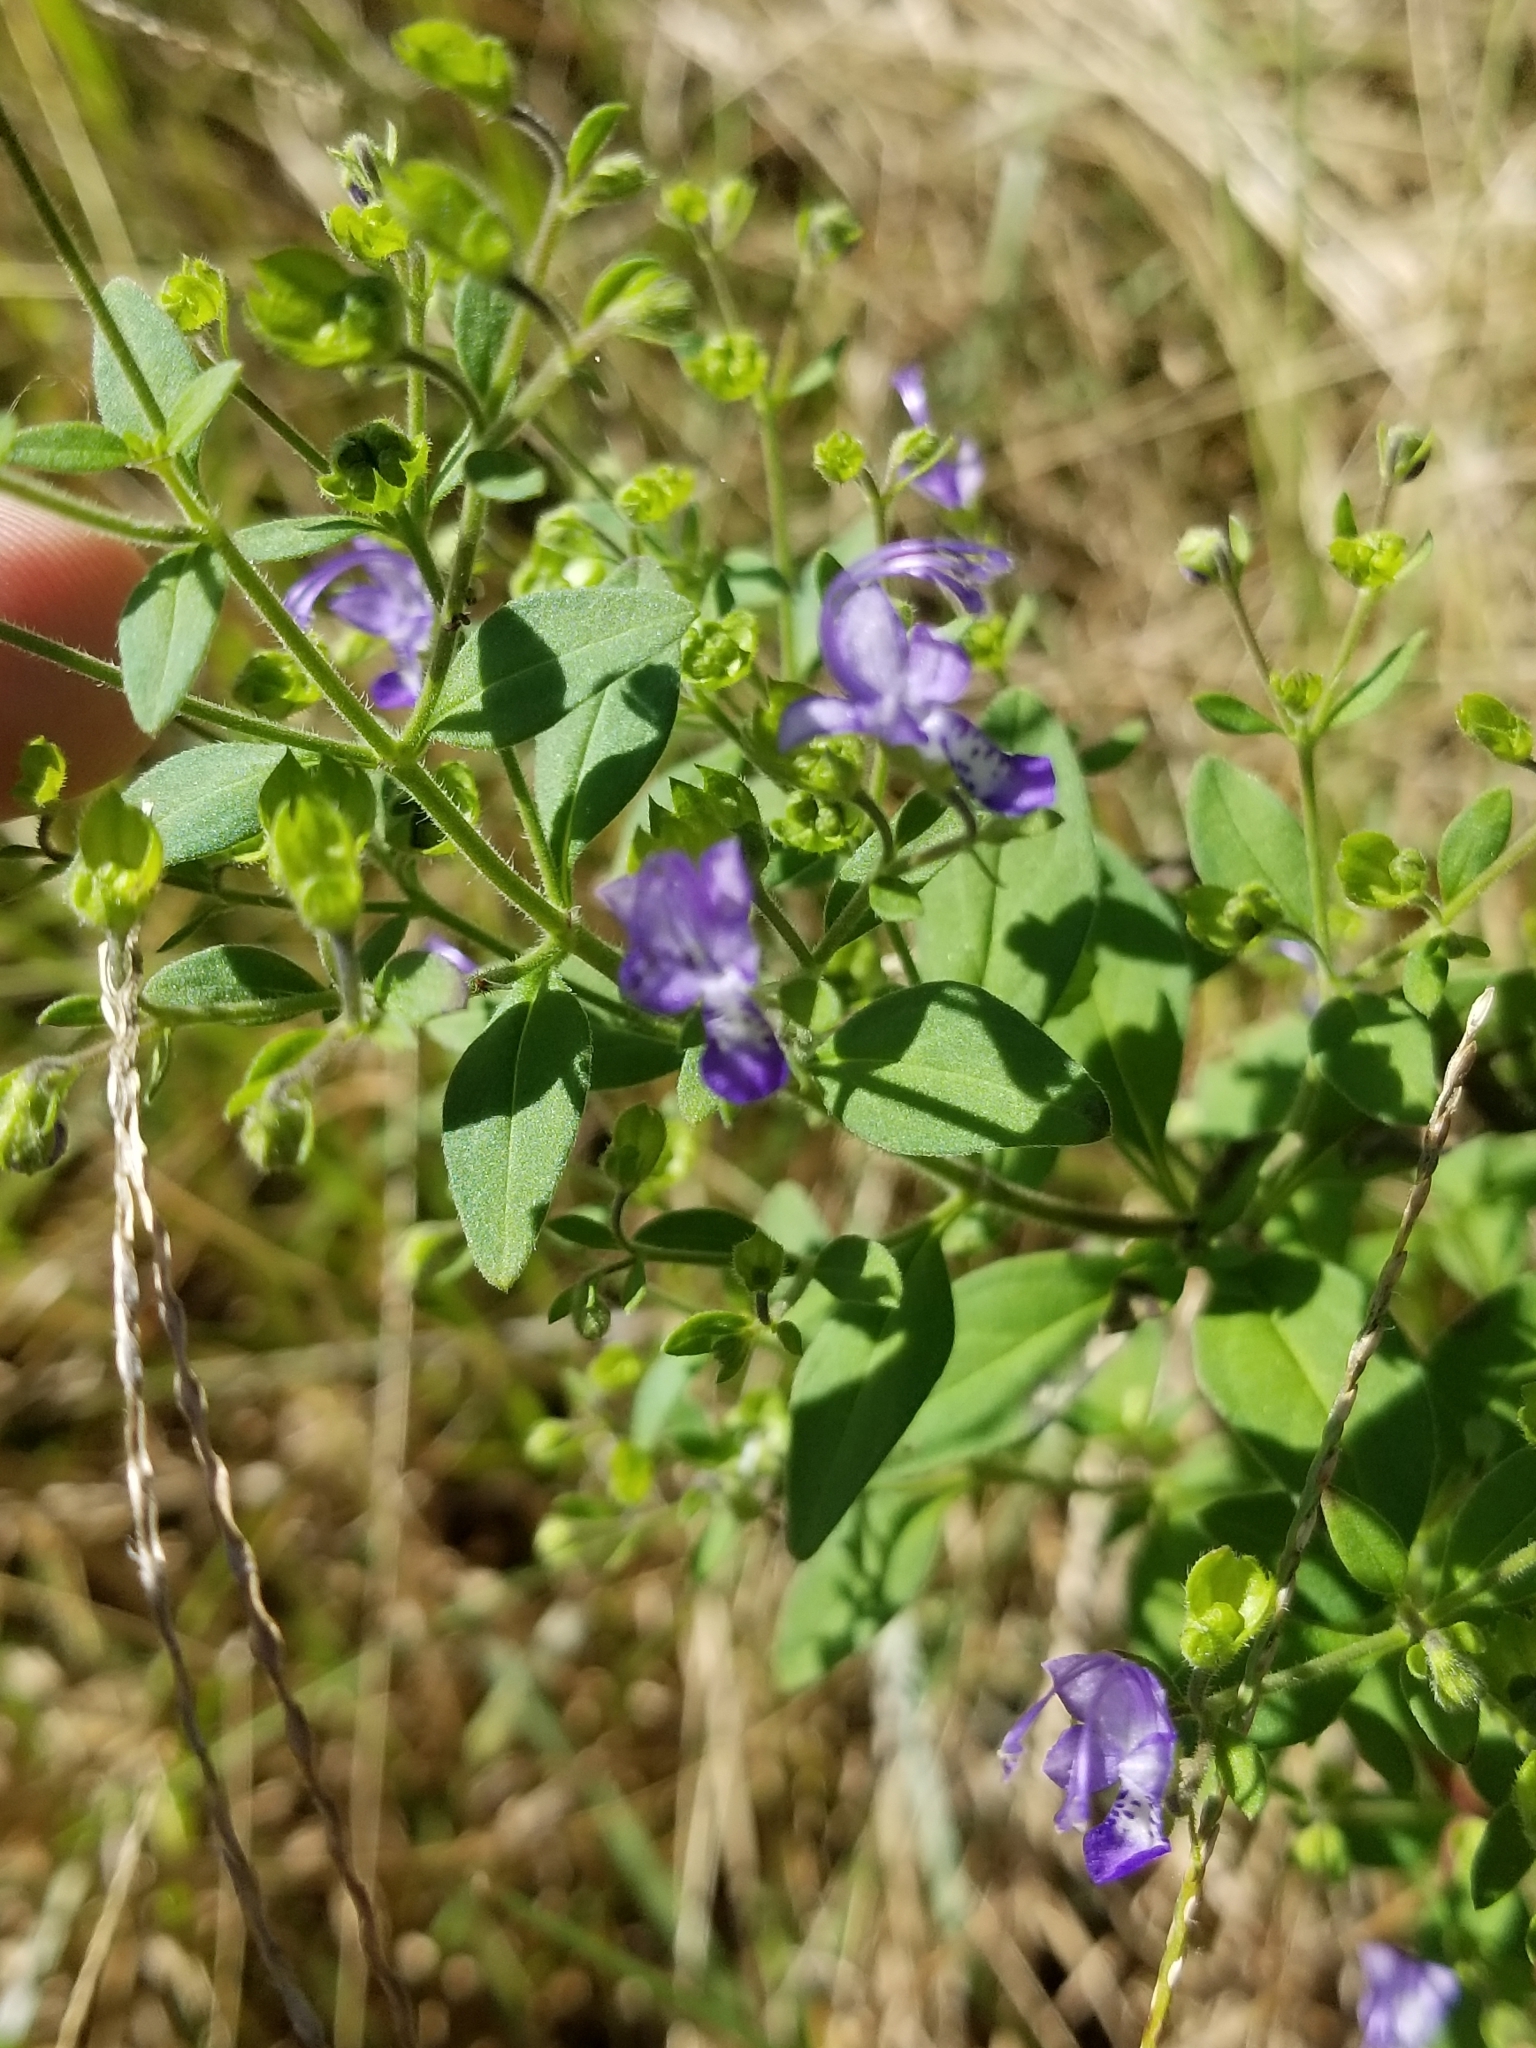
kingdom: Plantae
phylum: Tracheophyta
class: Magnoliopsida
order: Lamiales
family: Lamiaceae
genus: Trichostema
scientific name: Trichostema dichotomum
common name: Bastard pennyroyal
